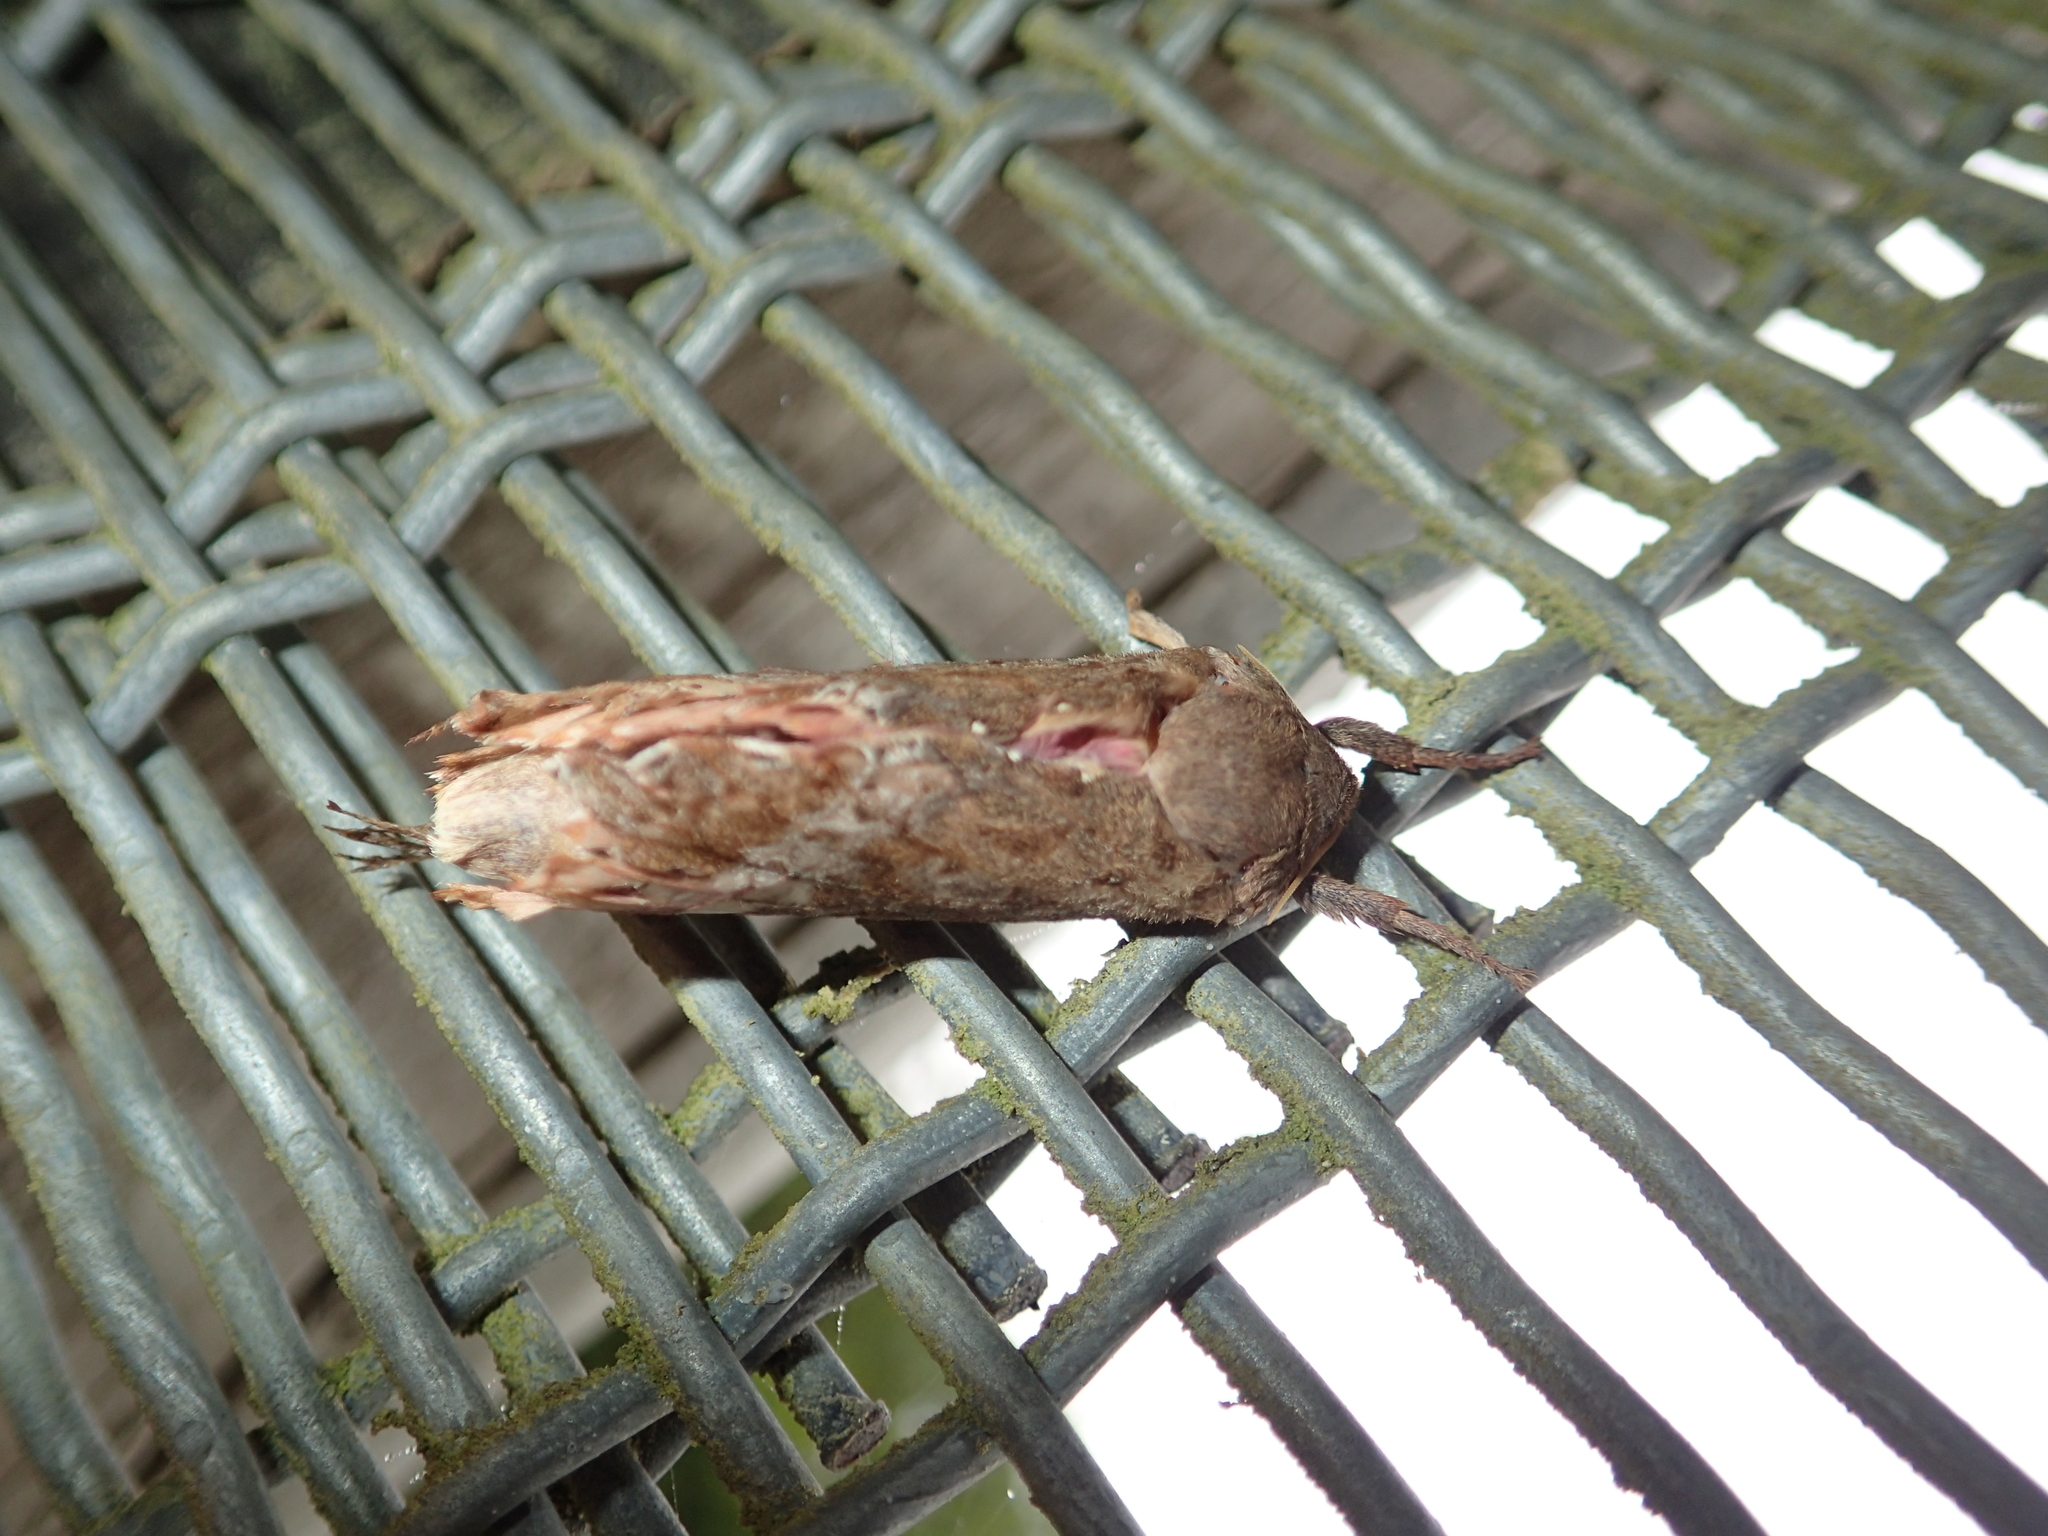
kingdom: Animalia
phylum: Arthropoda
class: Insecta
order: Lepidoptera
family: Hepialidae
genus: Dumbletonius
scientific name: Dumbletonius unimaculata
